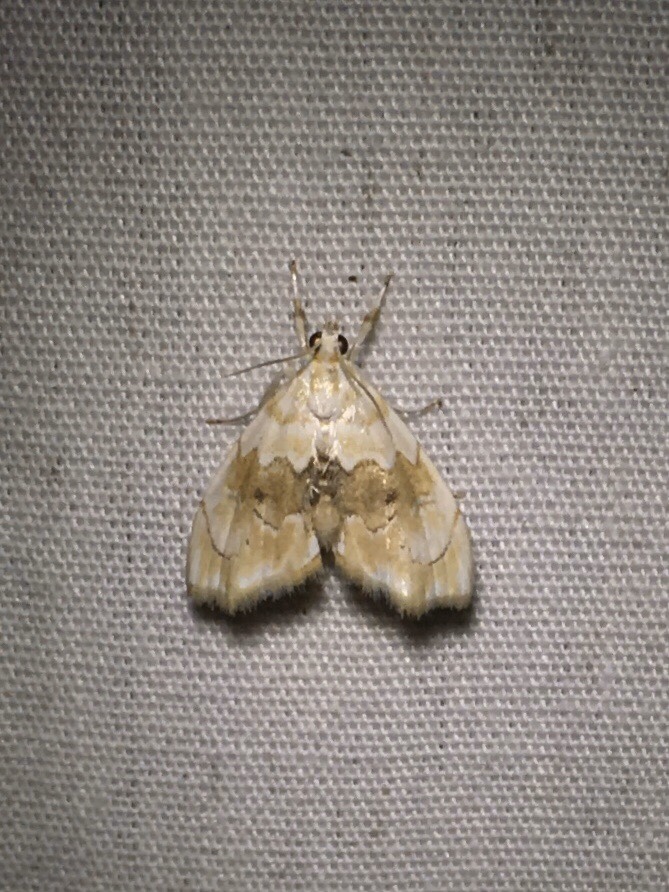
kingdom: Animalia
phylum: Arthropoda
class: Insecta
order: Lepidoptera
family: Crambidae
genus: Lipocosma
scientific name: Lipocosma sicalis
